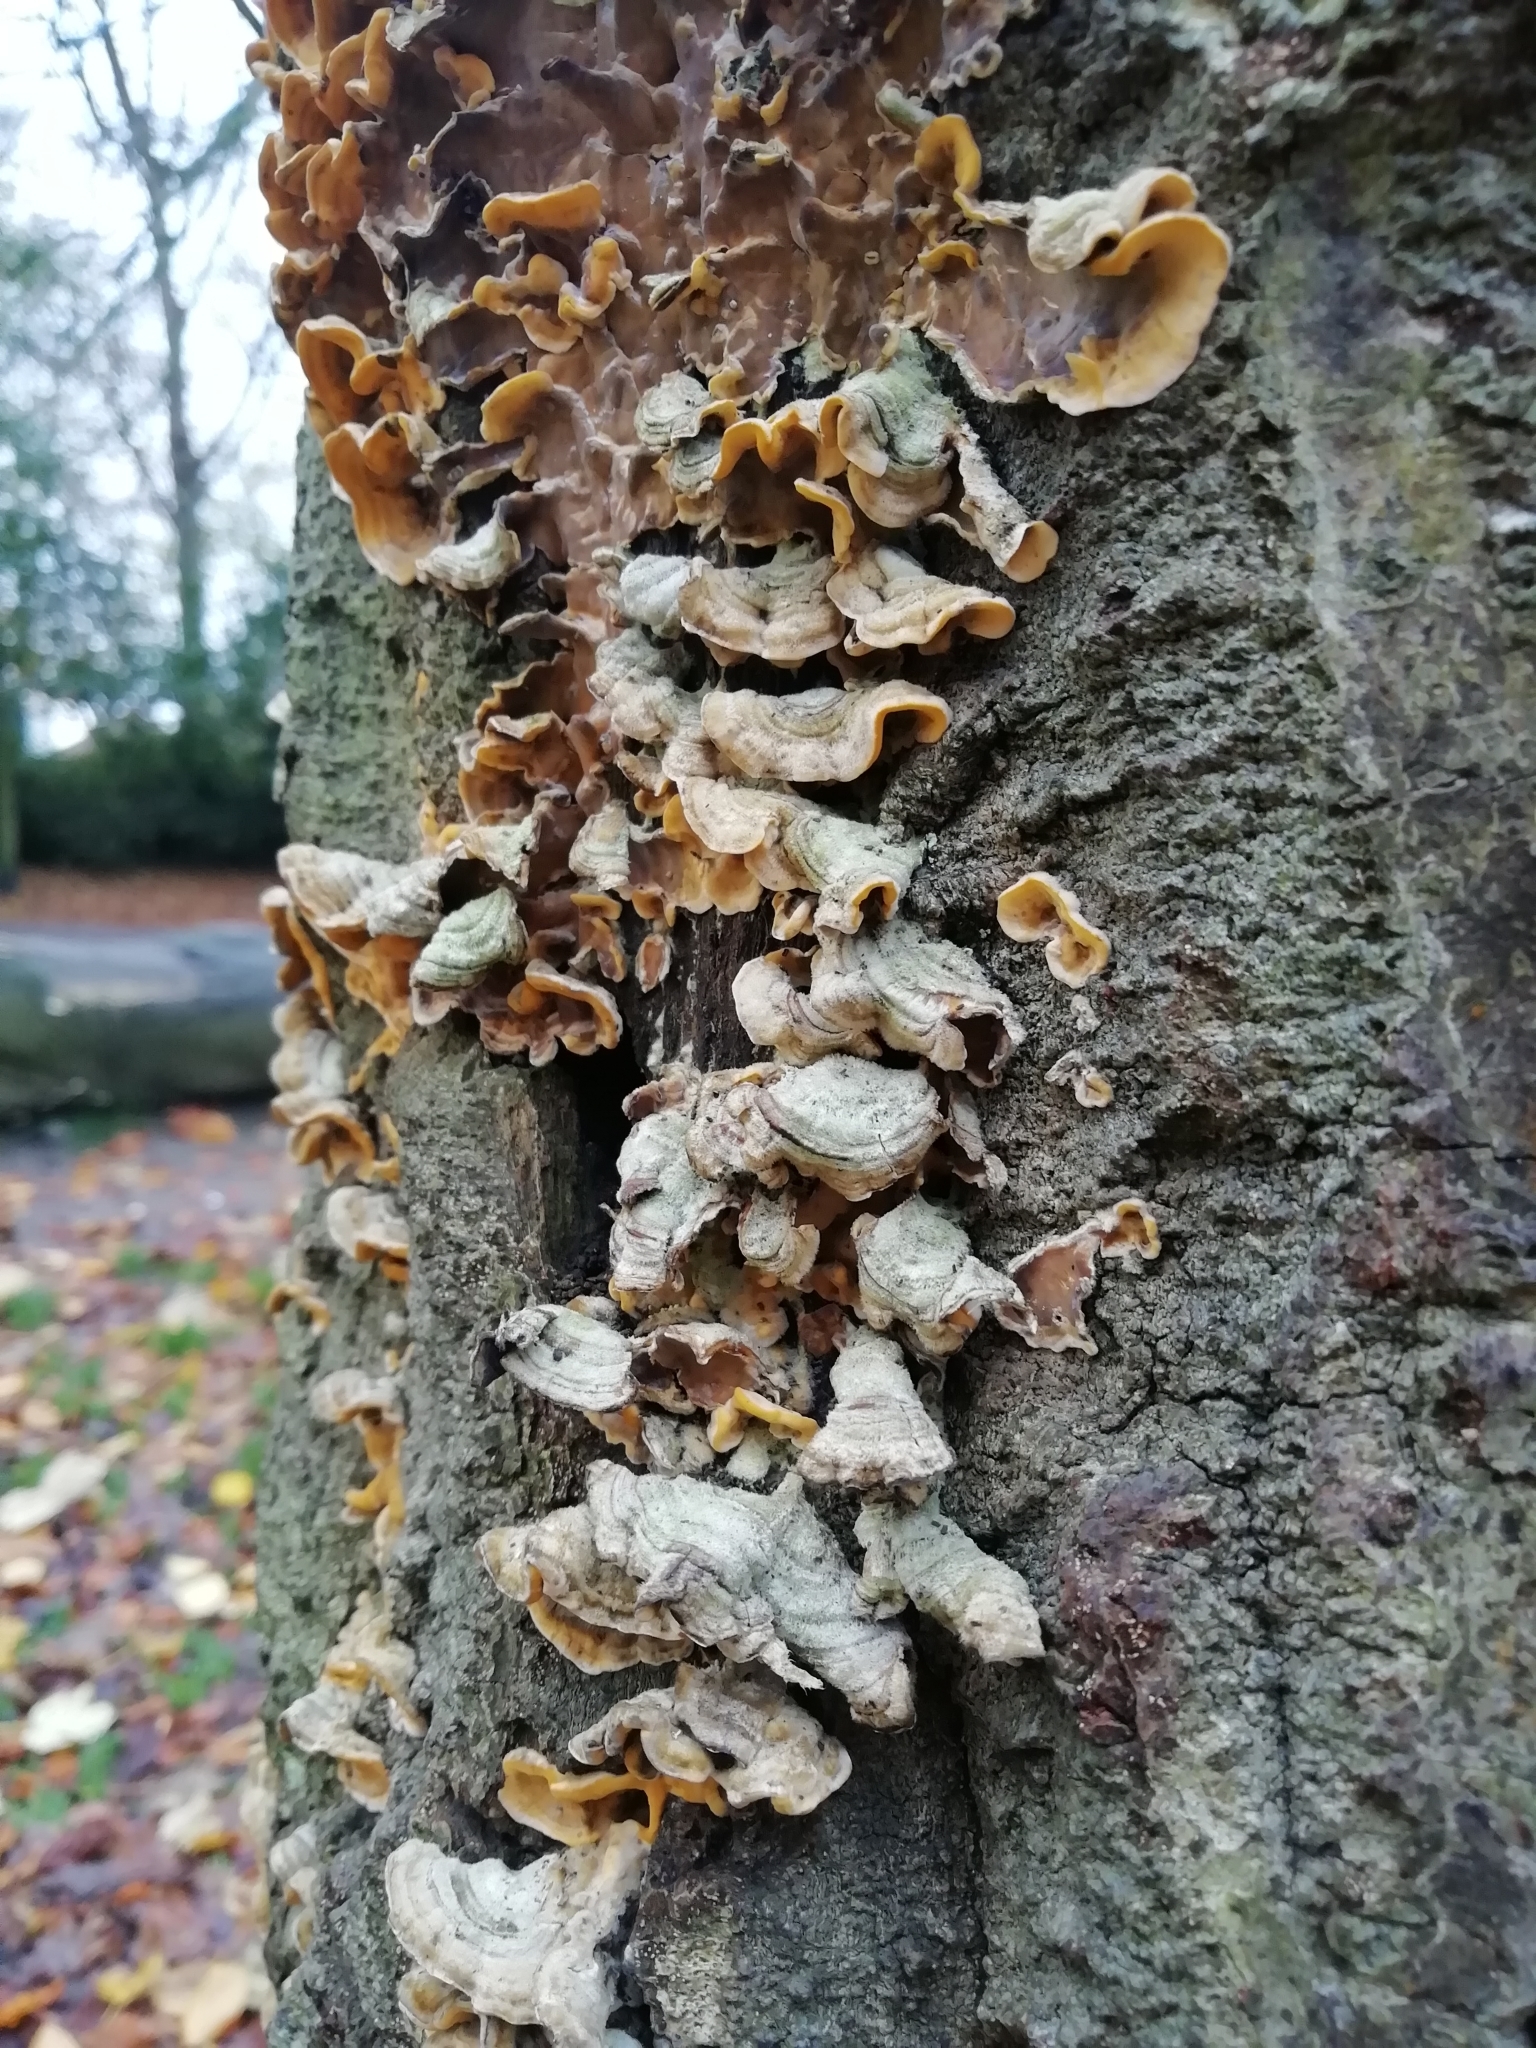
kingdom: Fungi
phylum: Basidiomycota
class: Agaricomycetes
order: Polyporales
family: Polyporaceae
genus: Trametes
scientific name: Trametes versicolor
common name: Turkeytail
